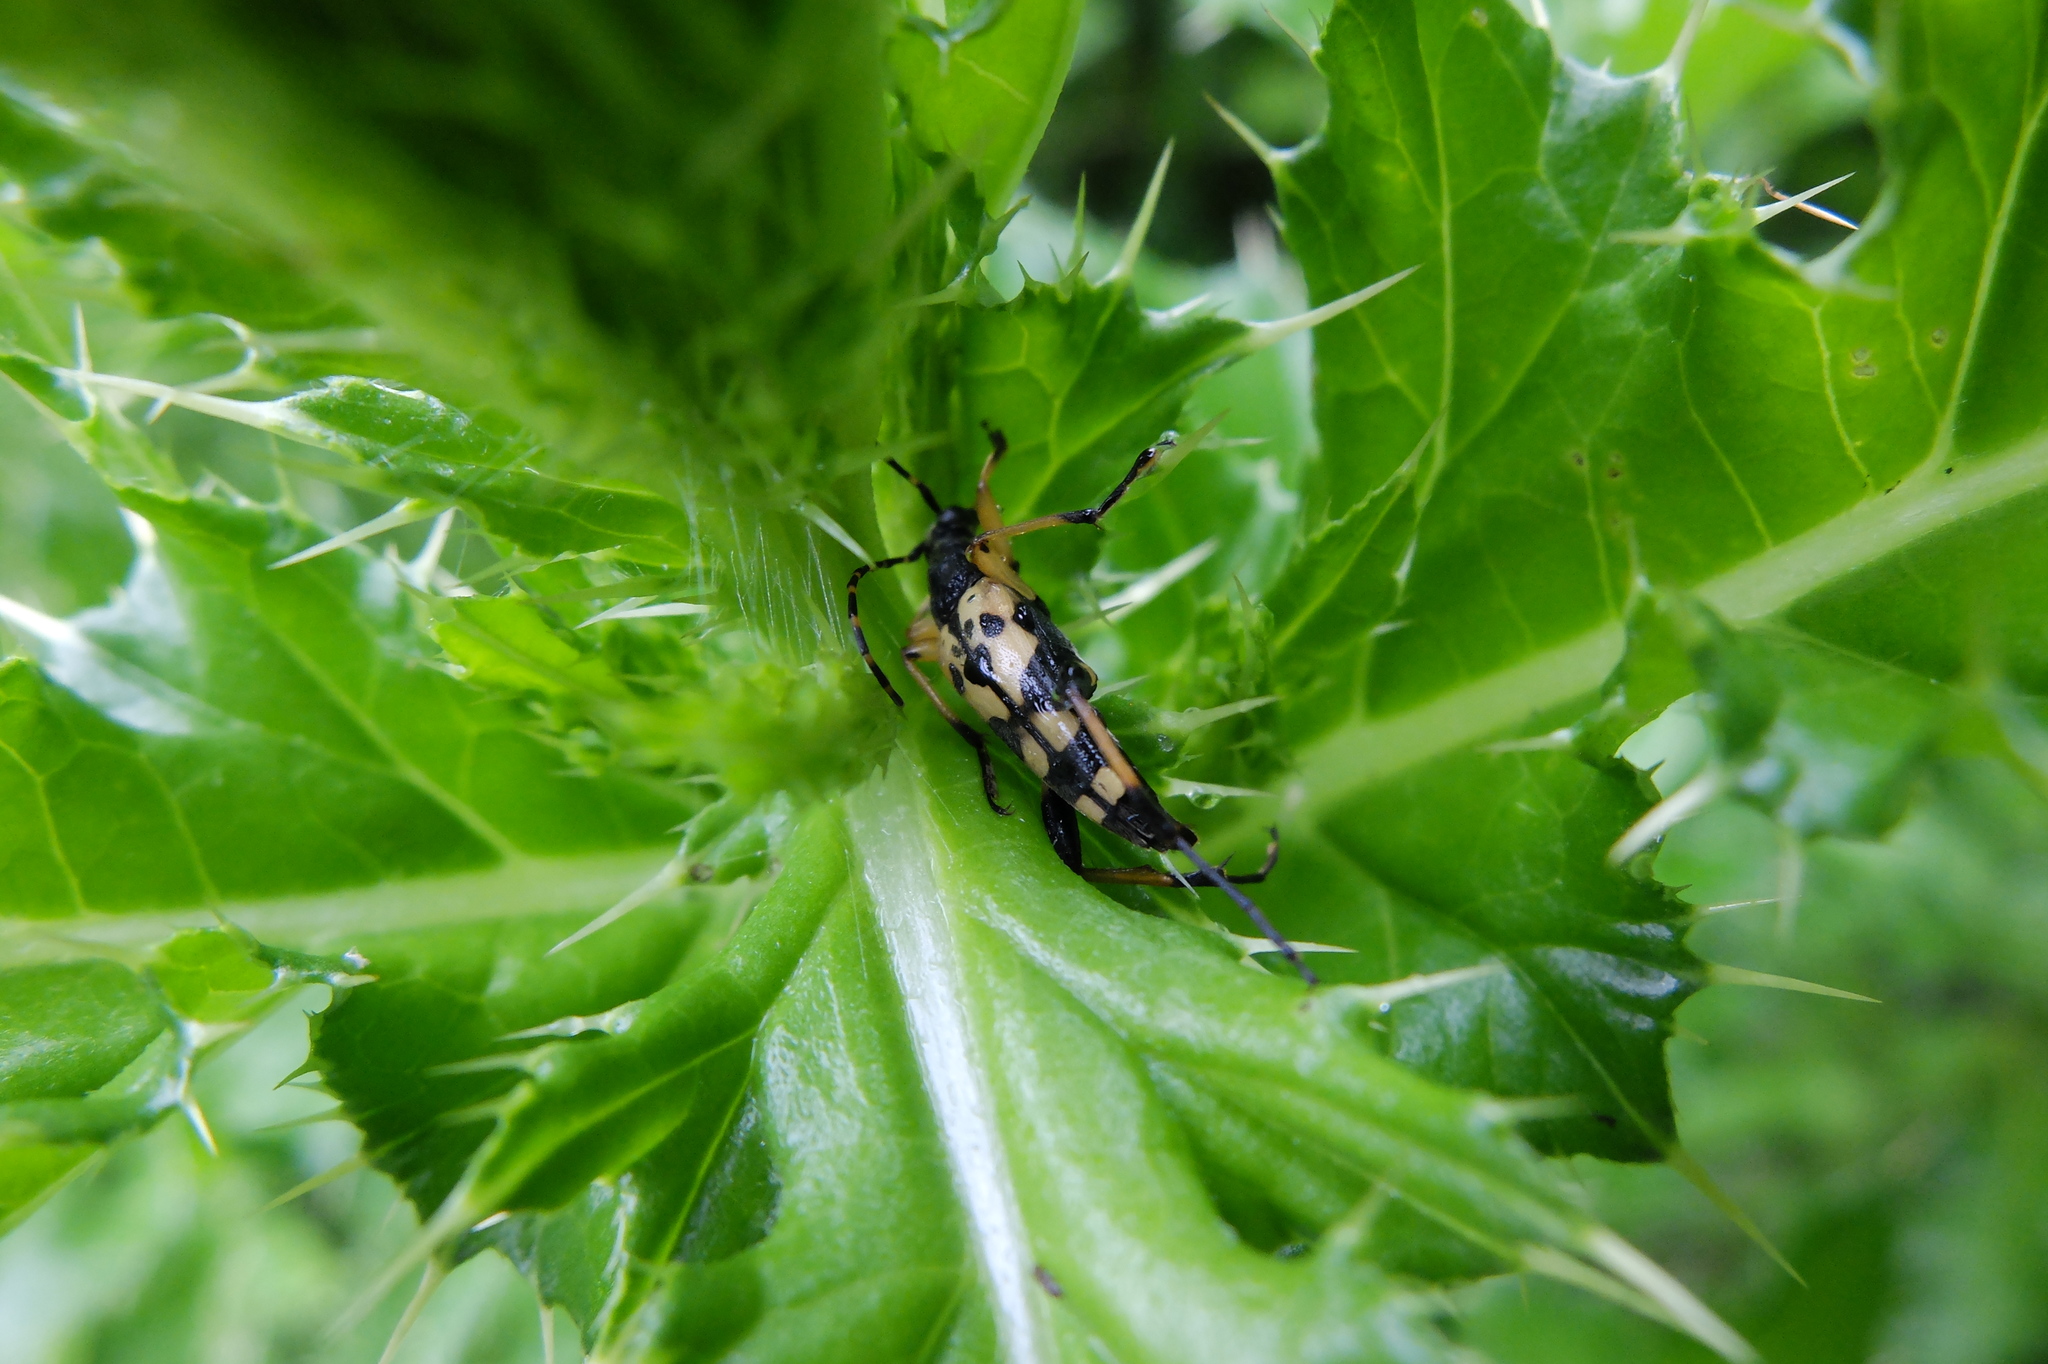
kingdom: Animalia
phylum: Arthropoda
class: Insecta
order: Coleoptera
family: Cerambycidae
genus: Rutpela
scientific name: Rutpela maculata
